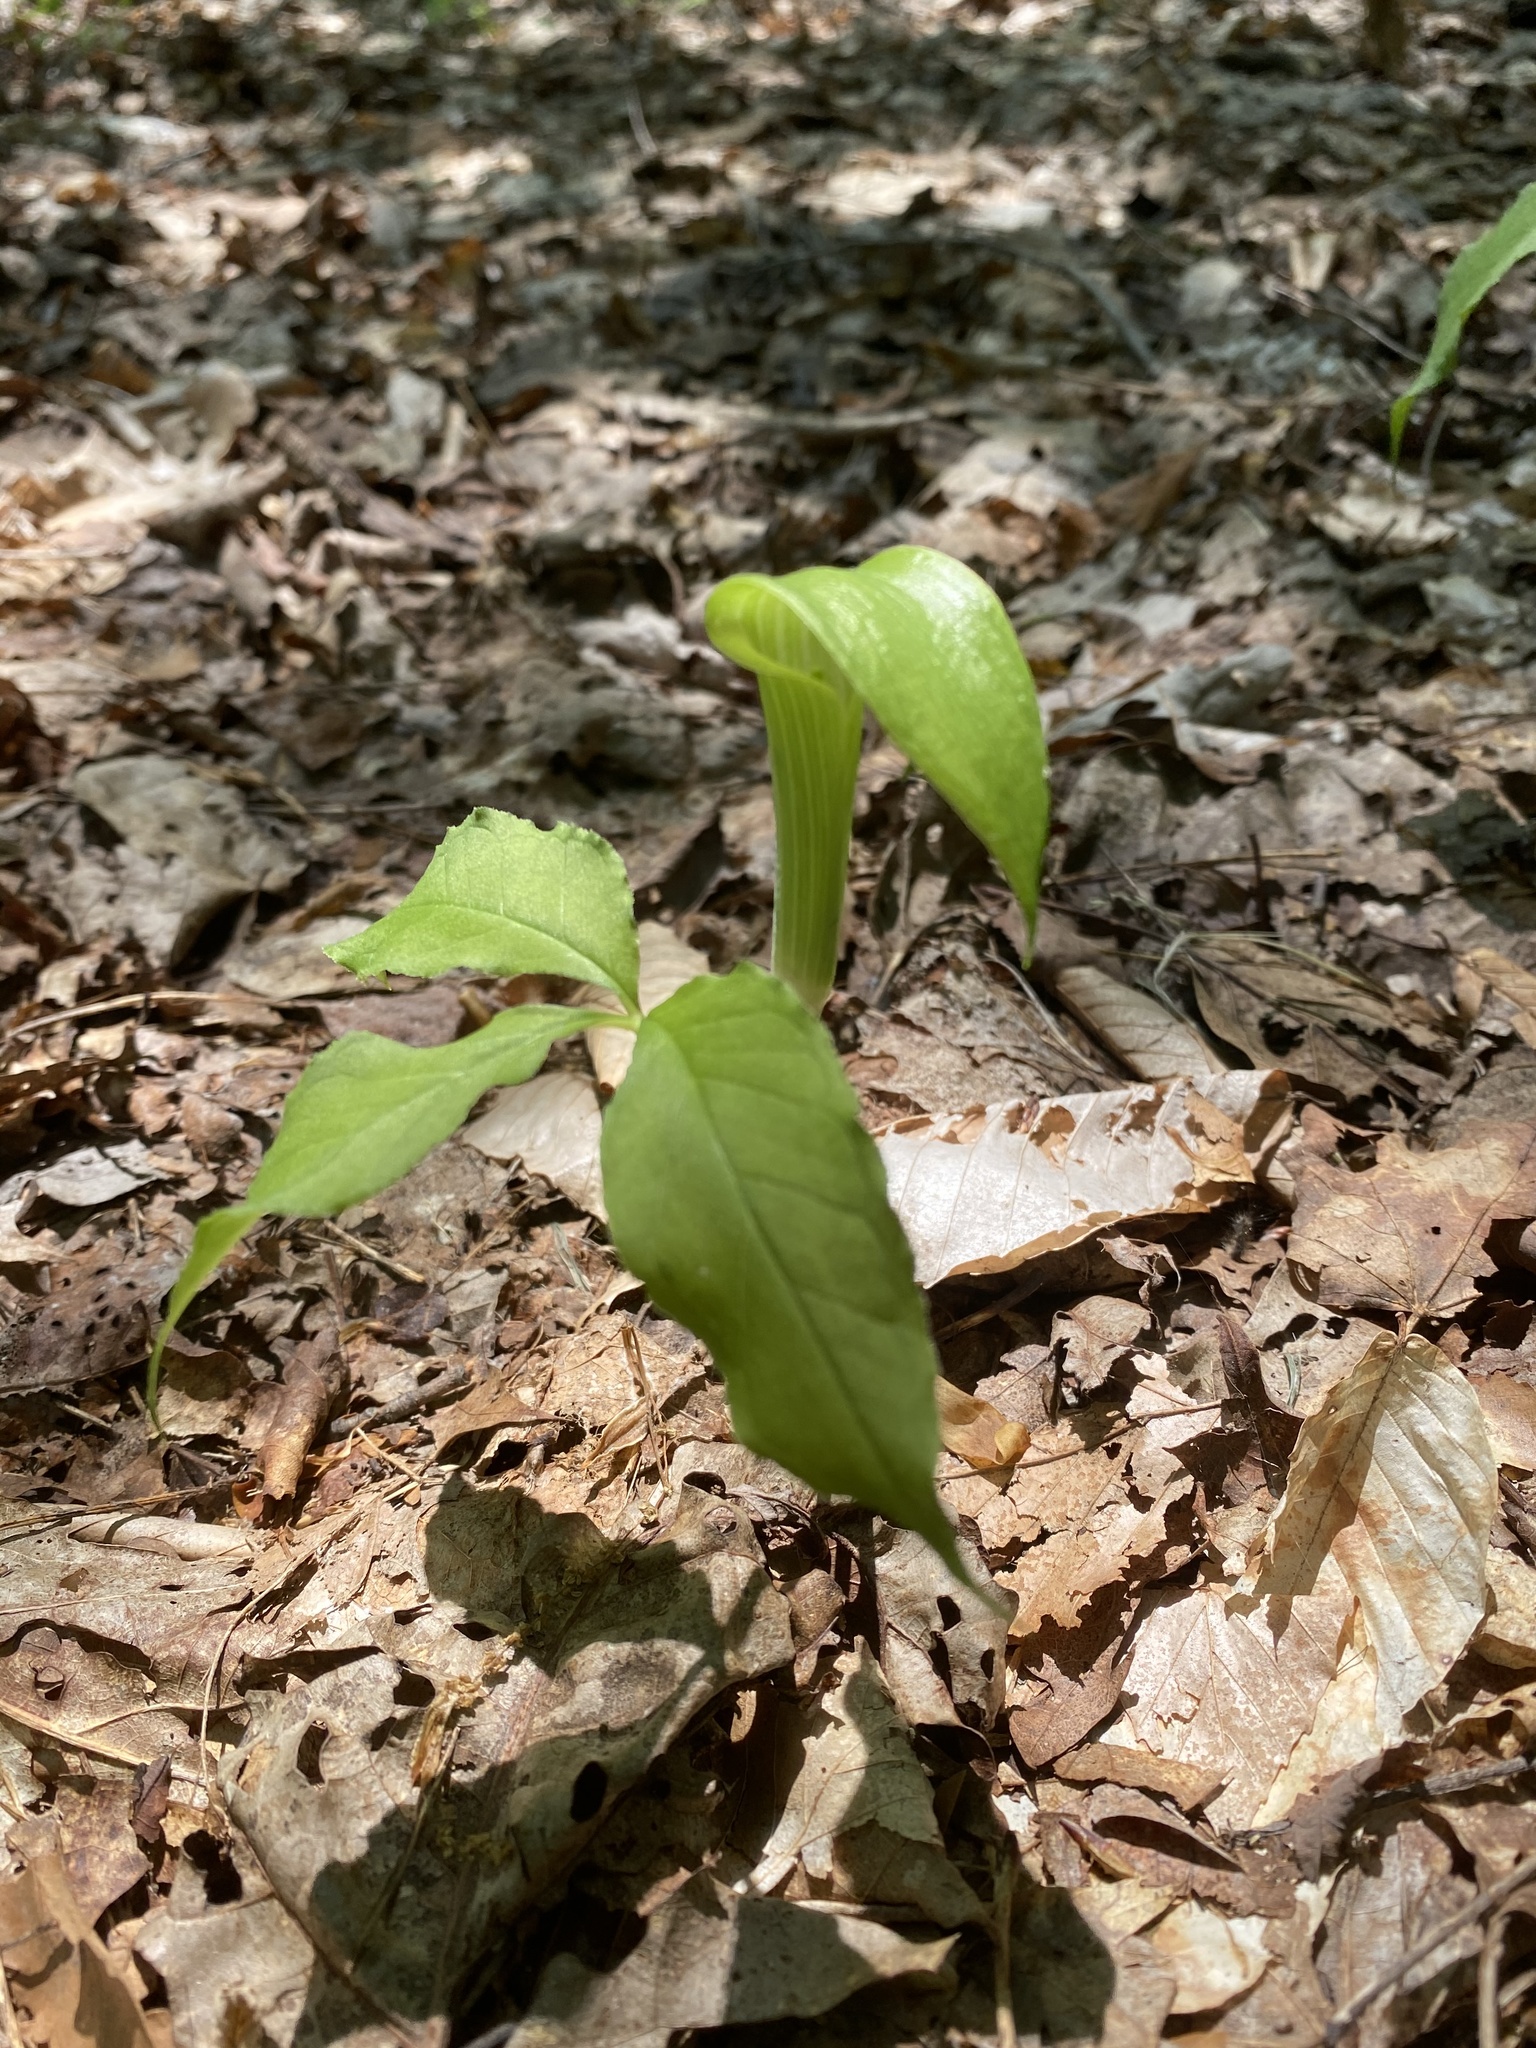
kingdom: Plantae
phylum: Tracheophyta
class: Liliopsida
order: Alismatales
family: Araceae
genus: Arisaema
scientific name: Arisaema triphyllum
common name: Jack-in-the-pulpit
